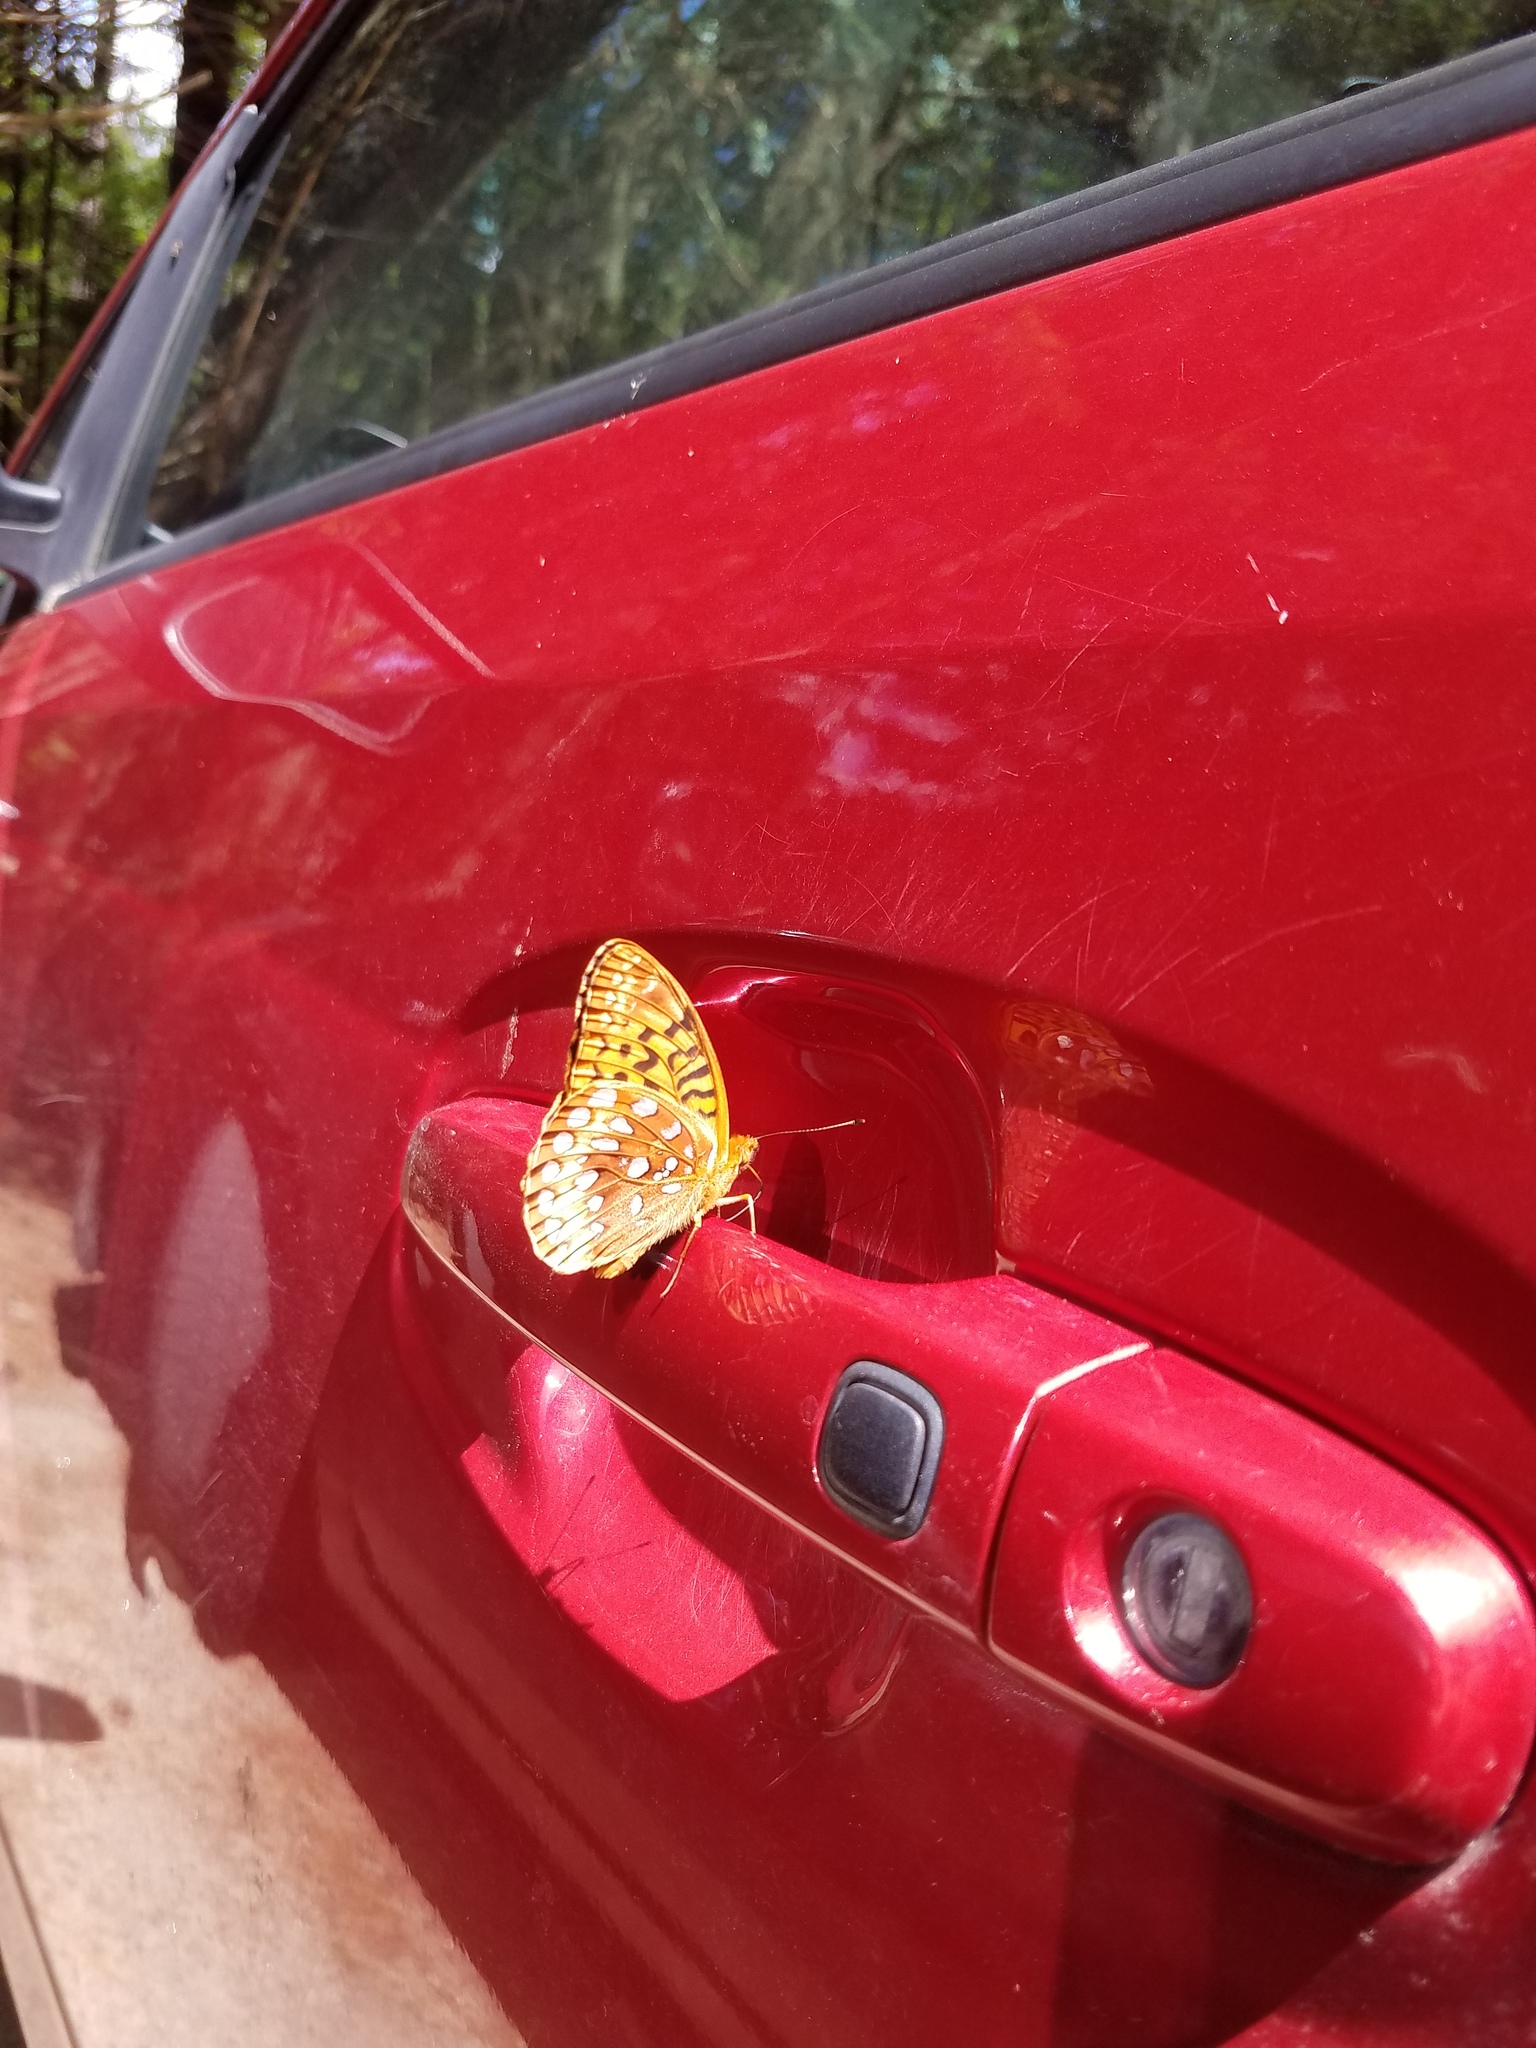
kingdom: Animalia
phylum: Arthropoda
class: Insecta
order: Lepidoptera
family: Nymphalidae
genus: Speyeria
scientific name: Speyeria cybele
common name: Great spangled fritillary
